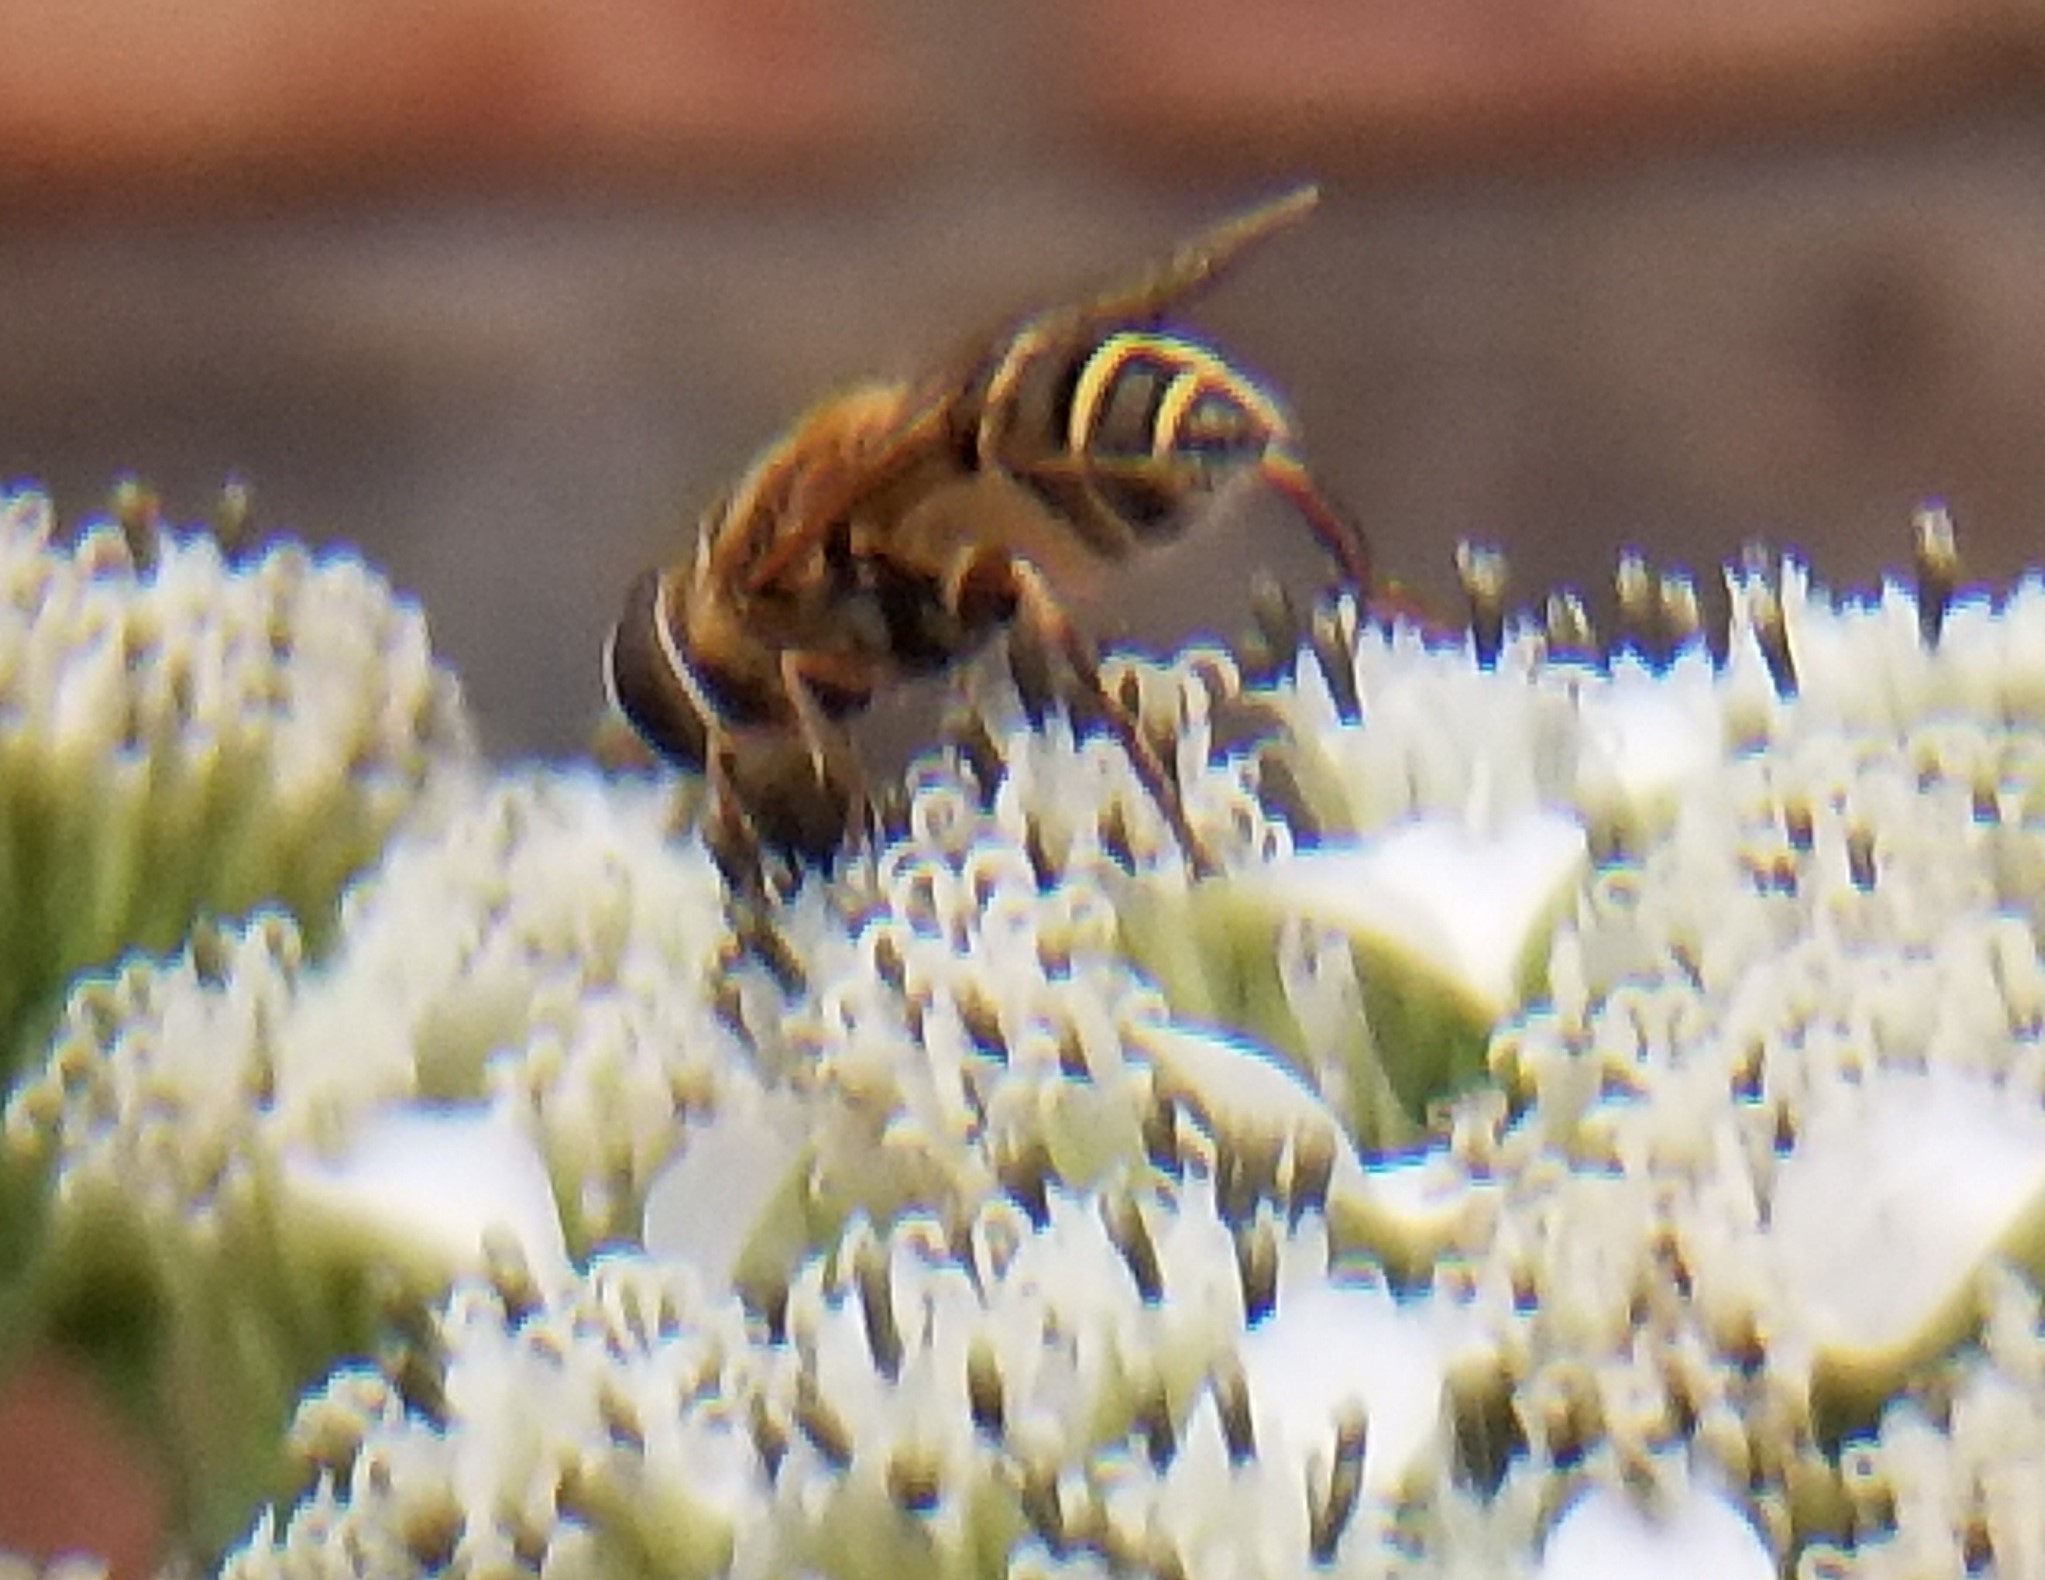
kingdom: Animalia
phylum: Arthropoda
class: Insecta
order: Diptera
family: Syrphidae
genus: Palpada
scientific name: Palpada vinetorum
